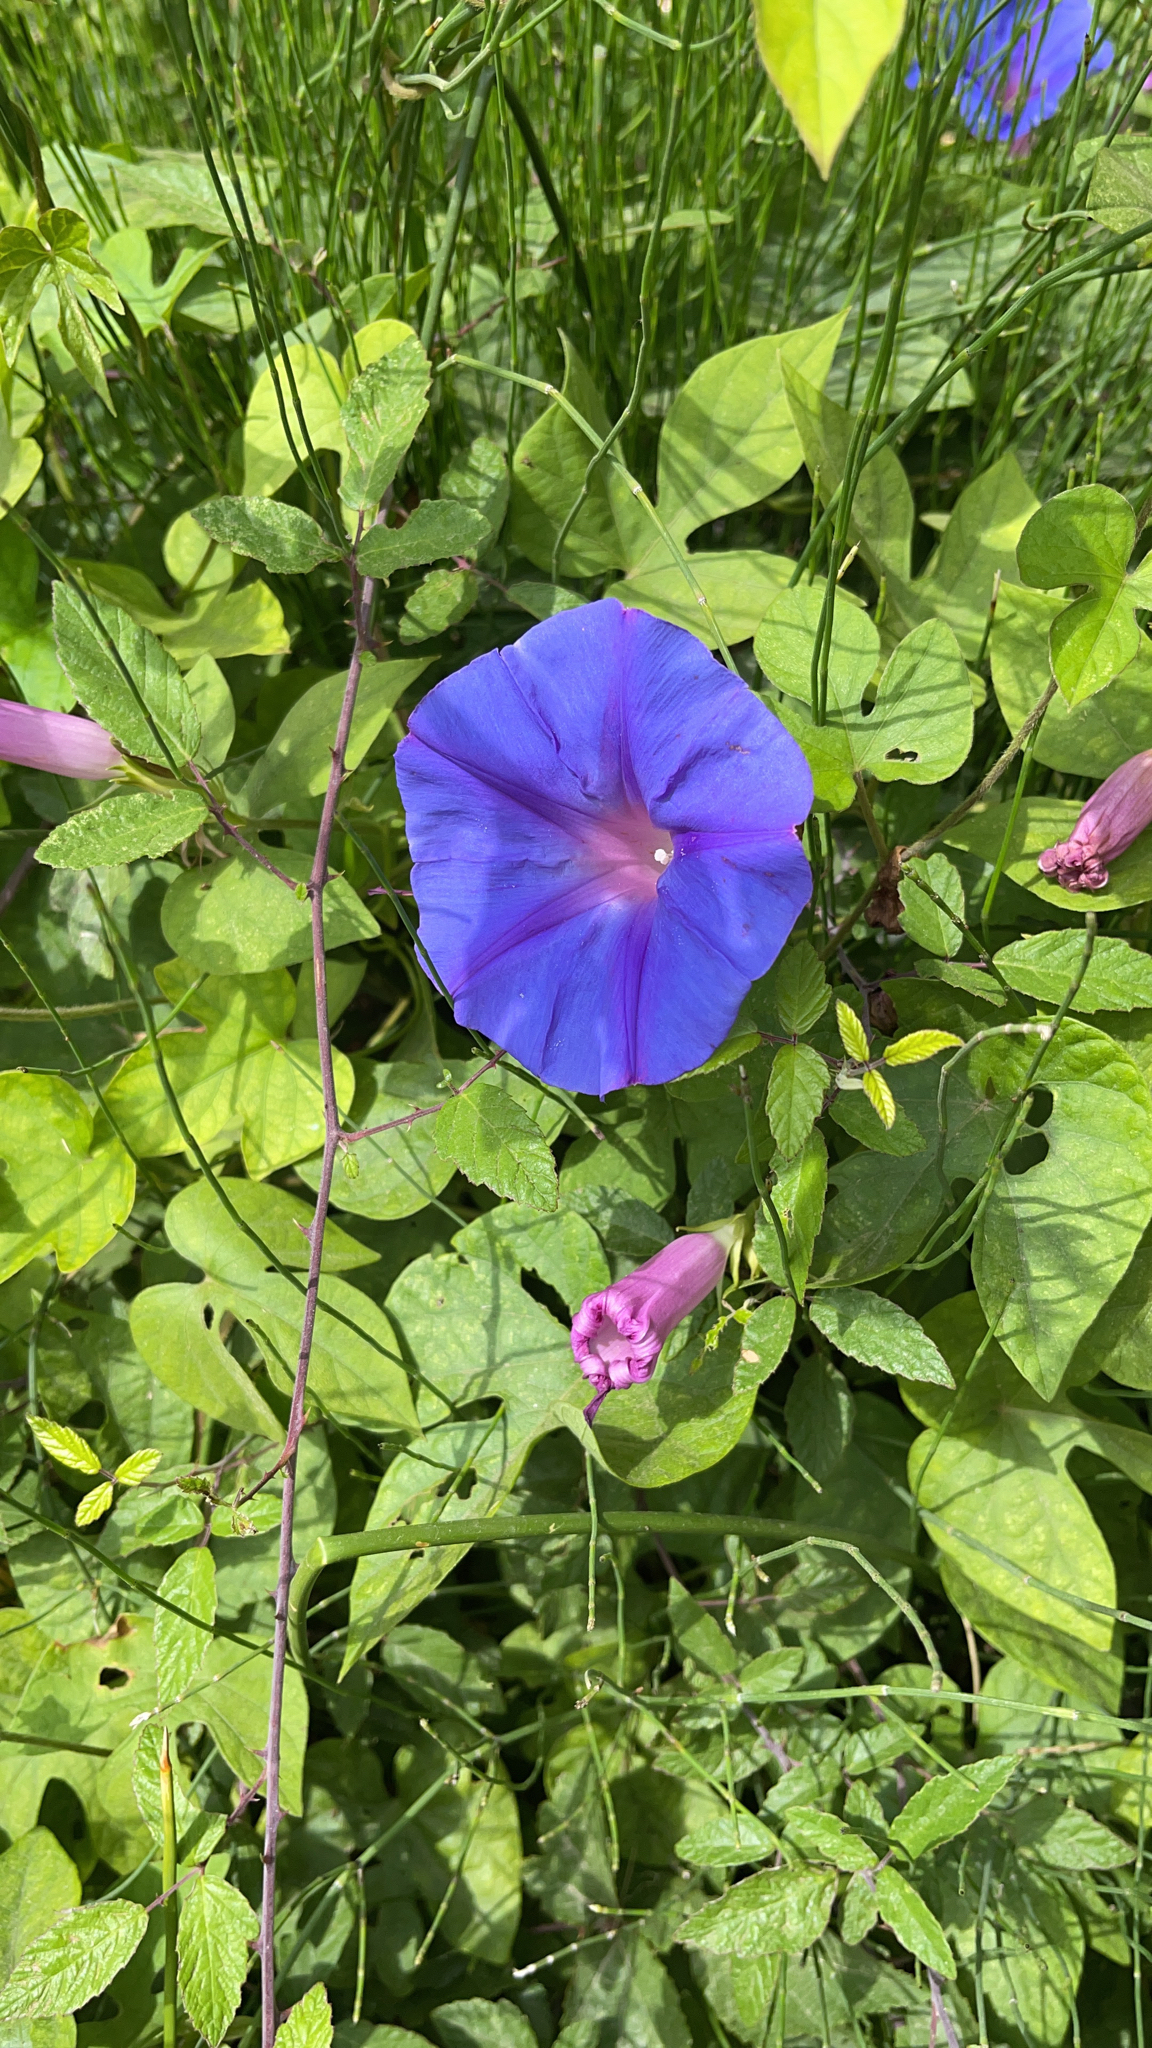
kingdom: Plantae
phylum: Tracheophyta
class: Magnoliopsida
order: Solanales
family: Convolvulaceae
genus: Ipomoea
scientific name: Ipomoea indica
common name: Blue dawnflower
